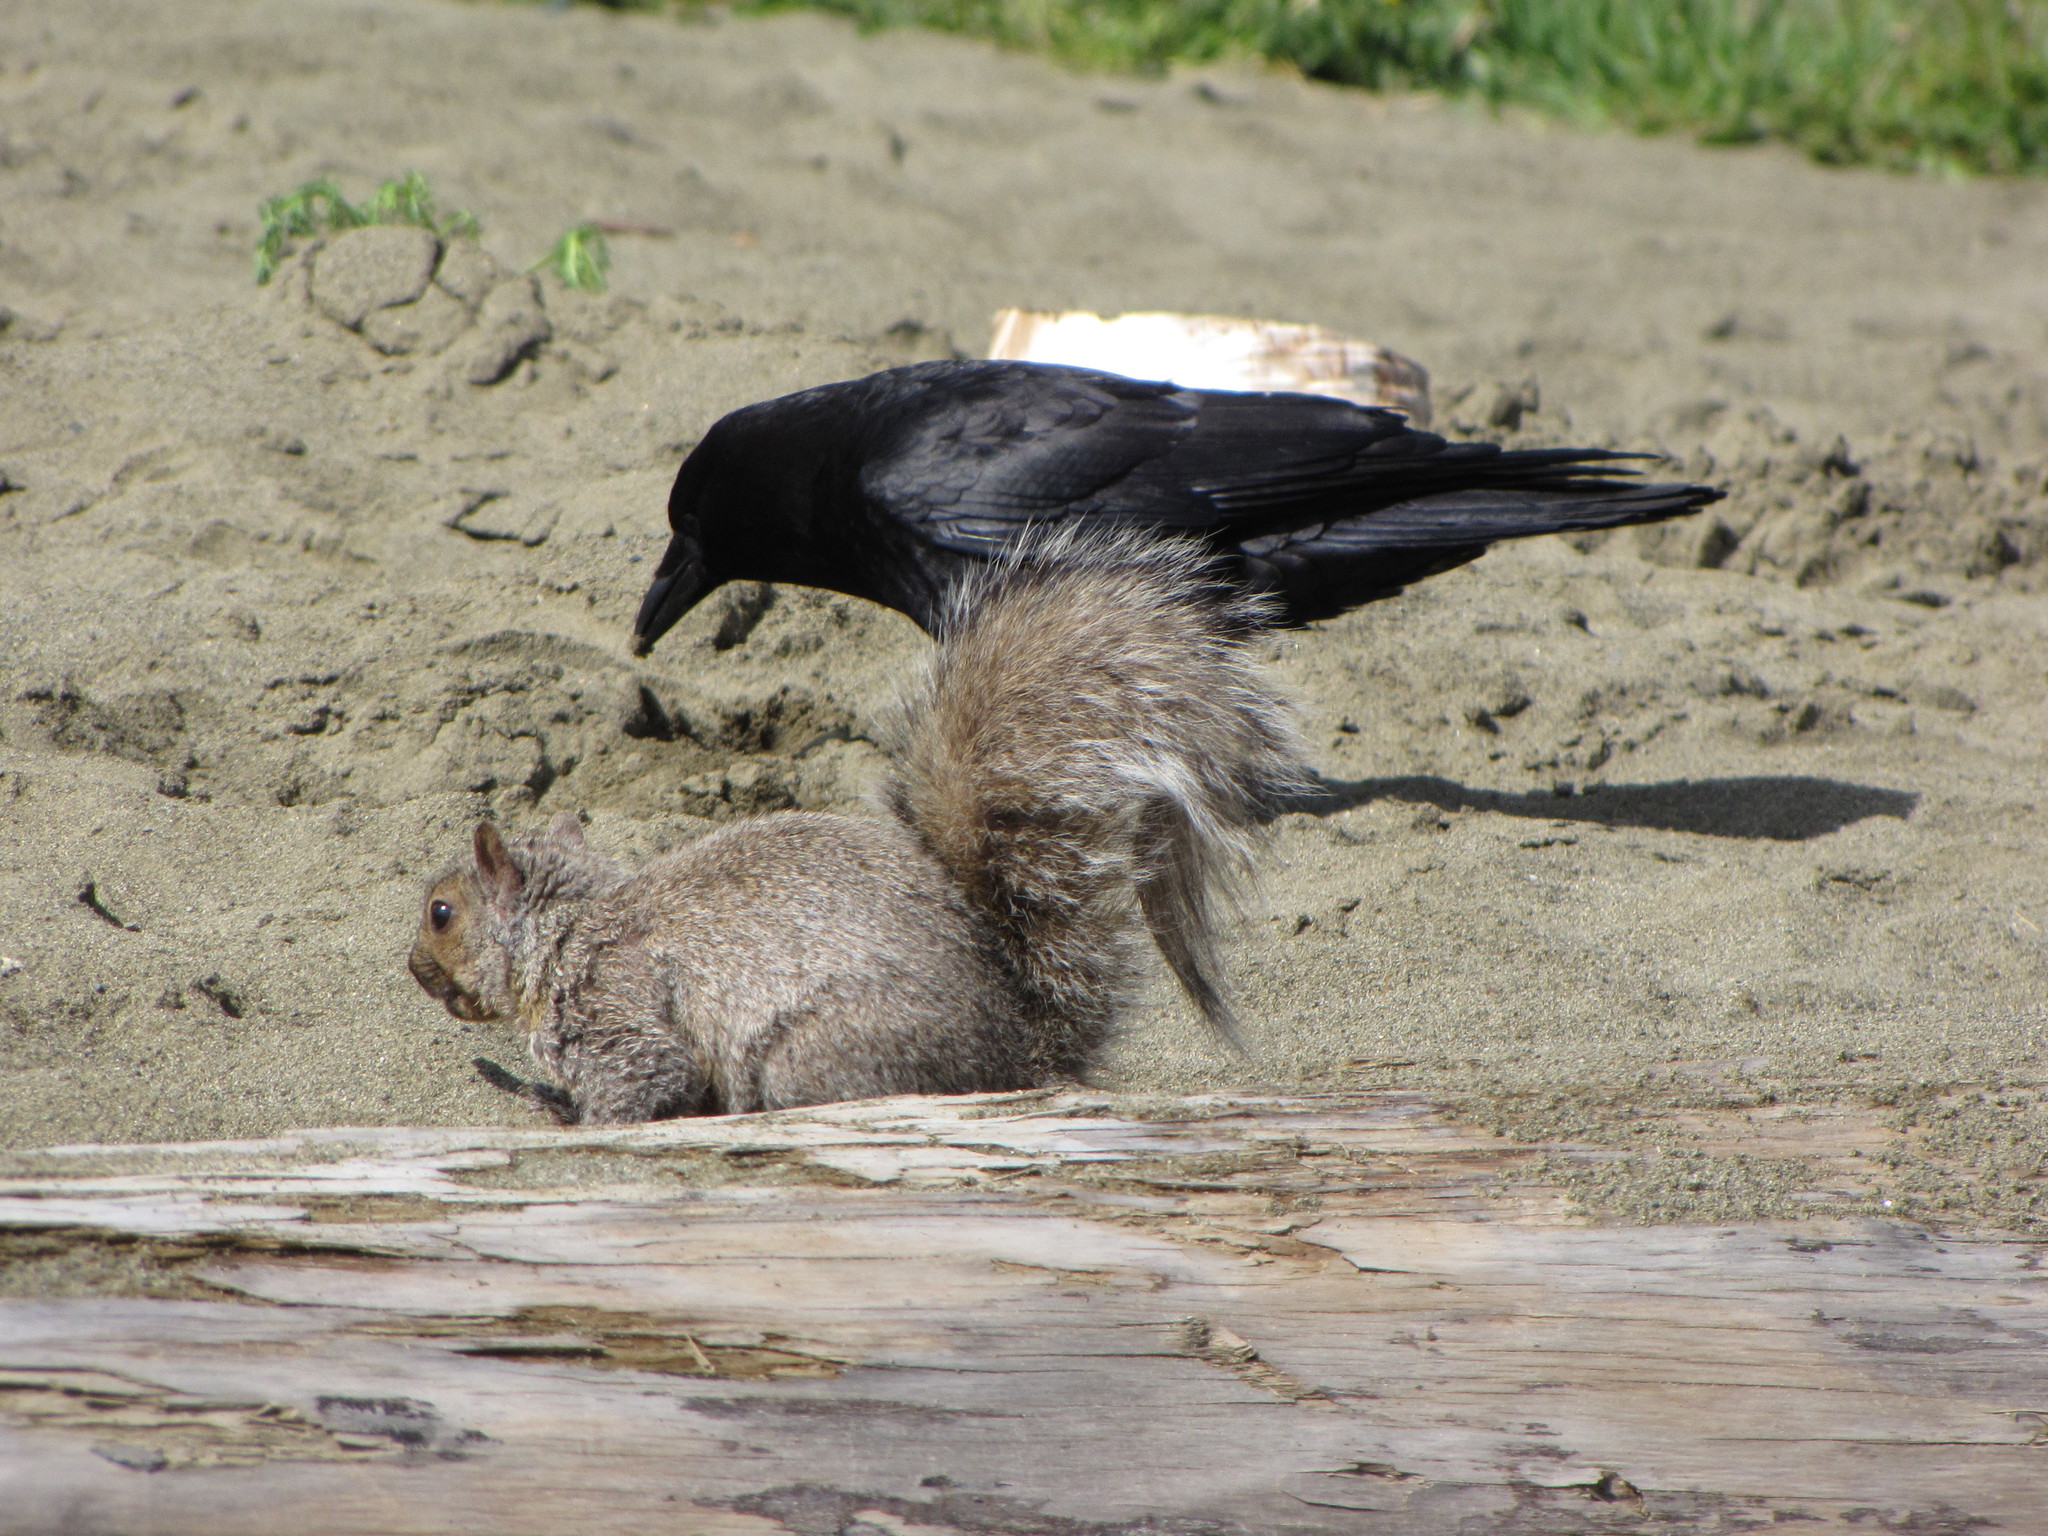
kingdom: Animalia
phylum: Chordata
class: Mammalia
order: Rodentia
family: Sciuridae
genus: Sciurus
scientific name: Sciurus carolinensis
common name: Eastern gray squirrel
